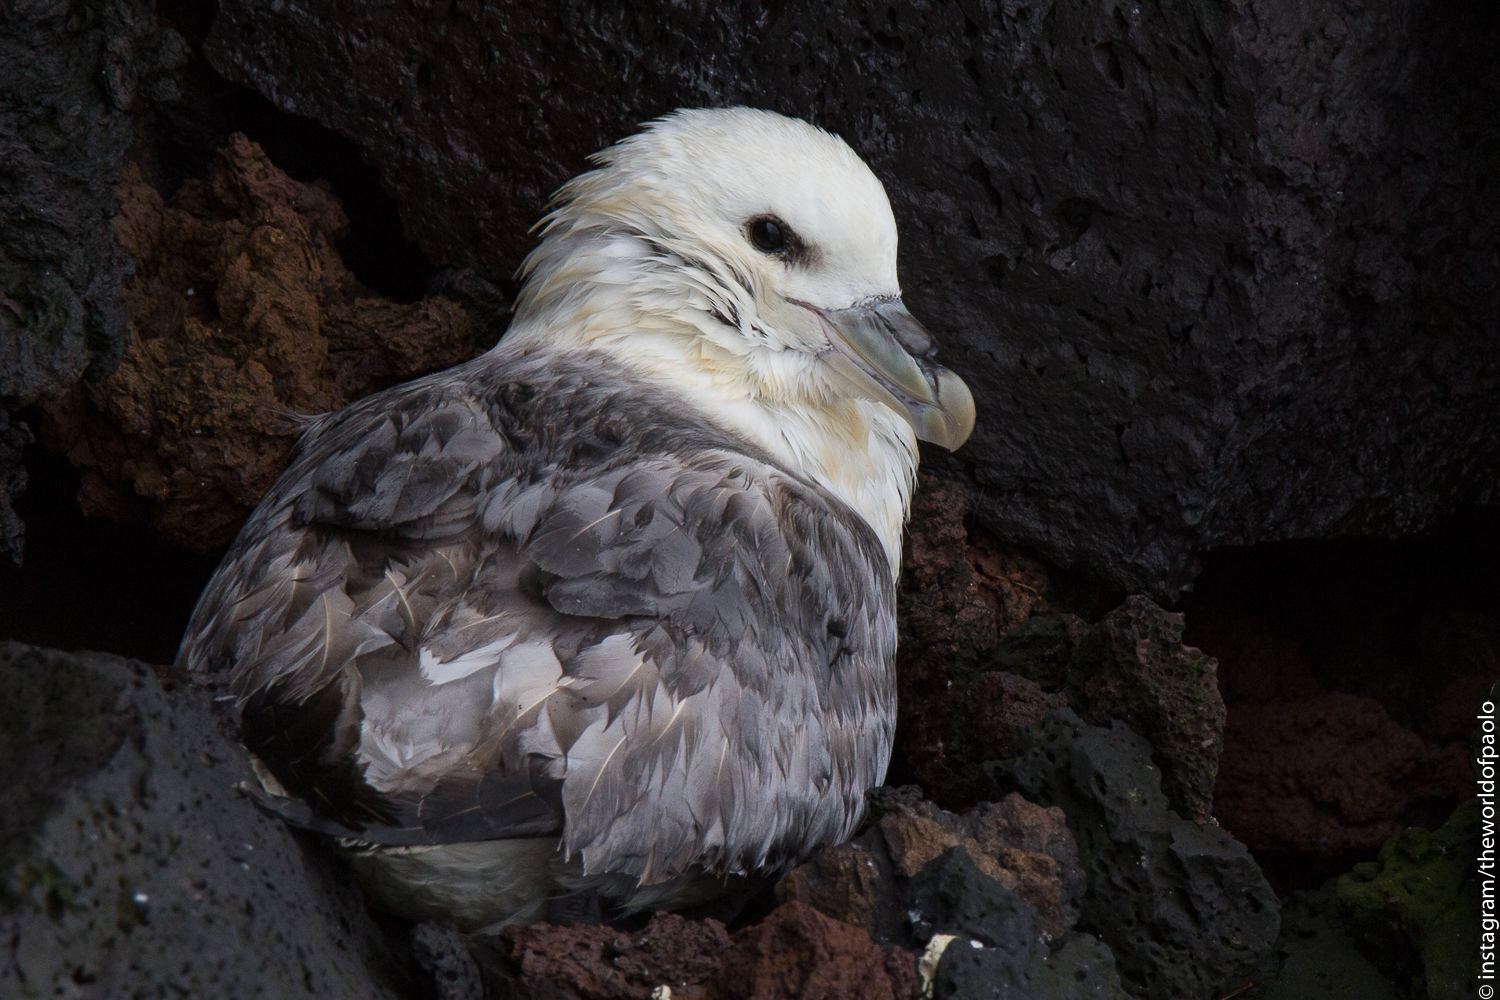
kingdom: Animalia
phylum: Chordata
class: Aves
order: Procellariiformes
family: Procellariidae
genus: Fulmarus
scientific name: Fulmarus glacialis
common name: Northern fulmar
